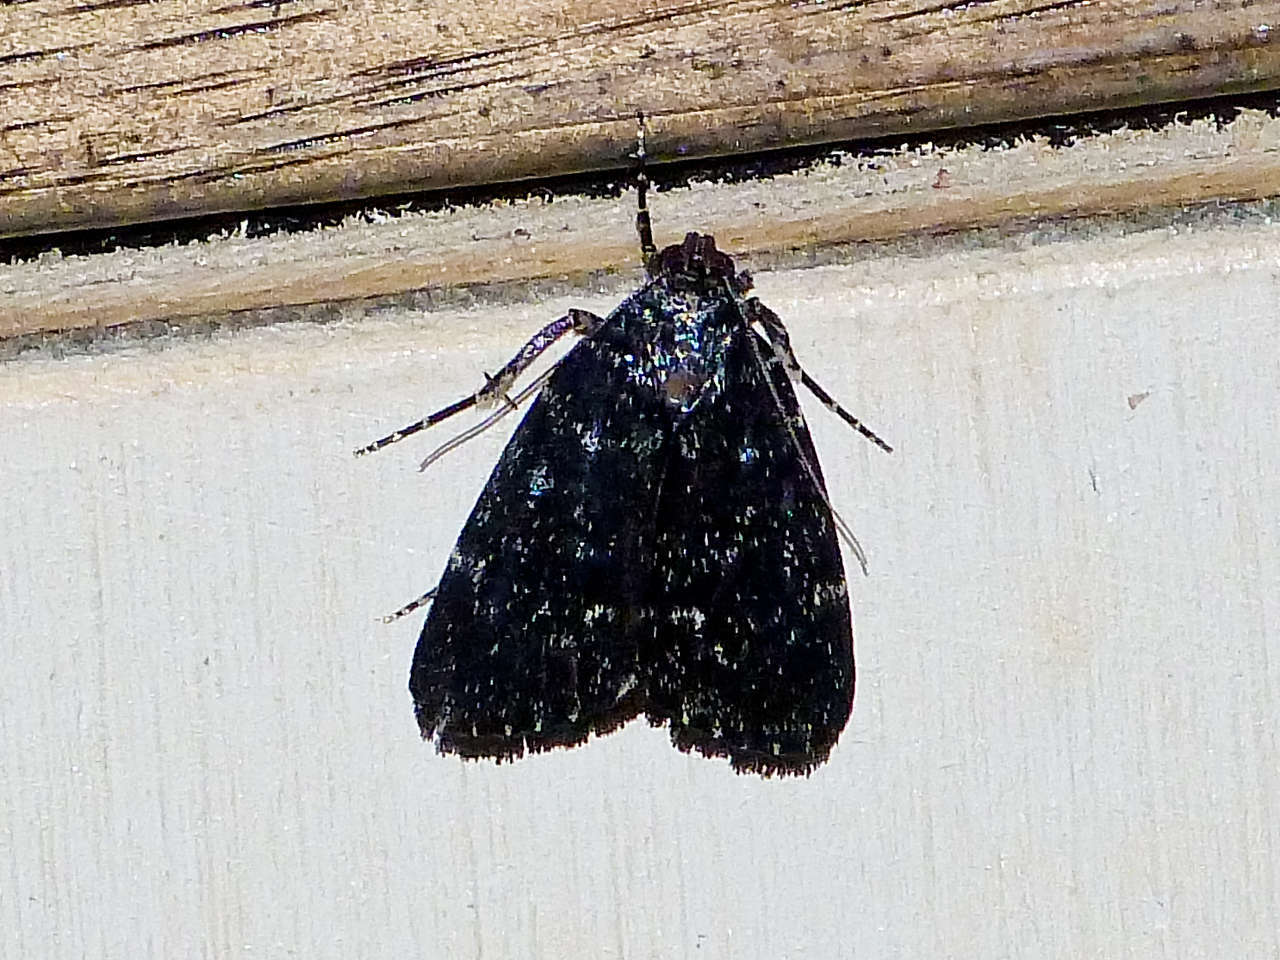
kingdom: Animalia
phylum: Arthropoda
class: Insecta
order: Lepidoptera
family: Pyralidae
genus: Stericta
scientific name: Stericta carbonalis
